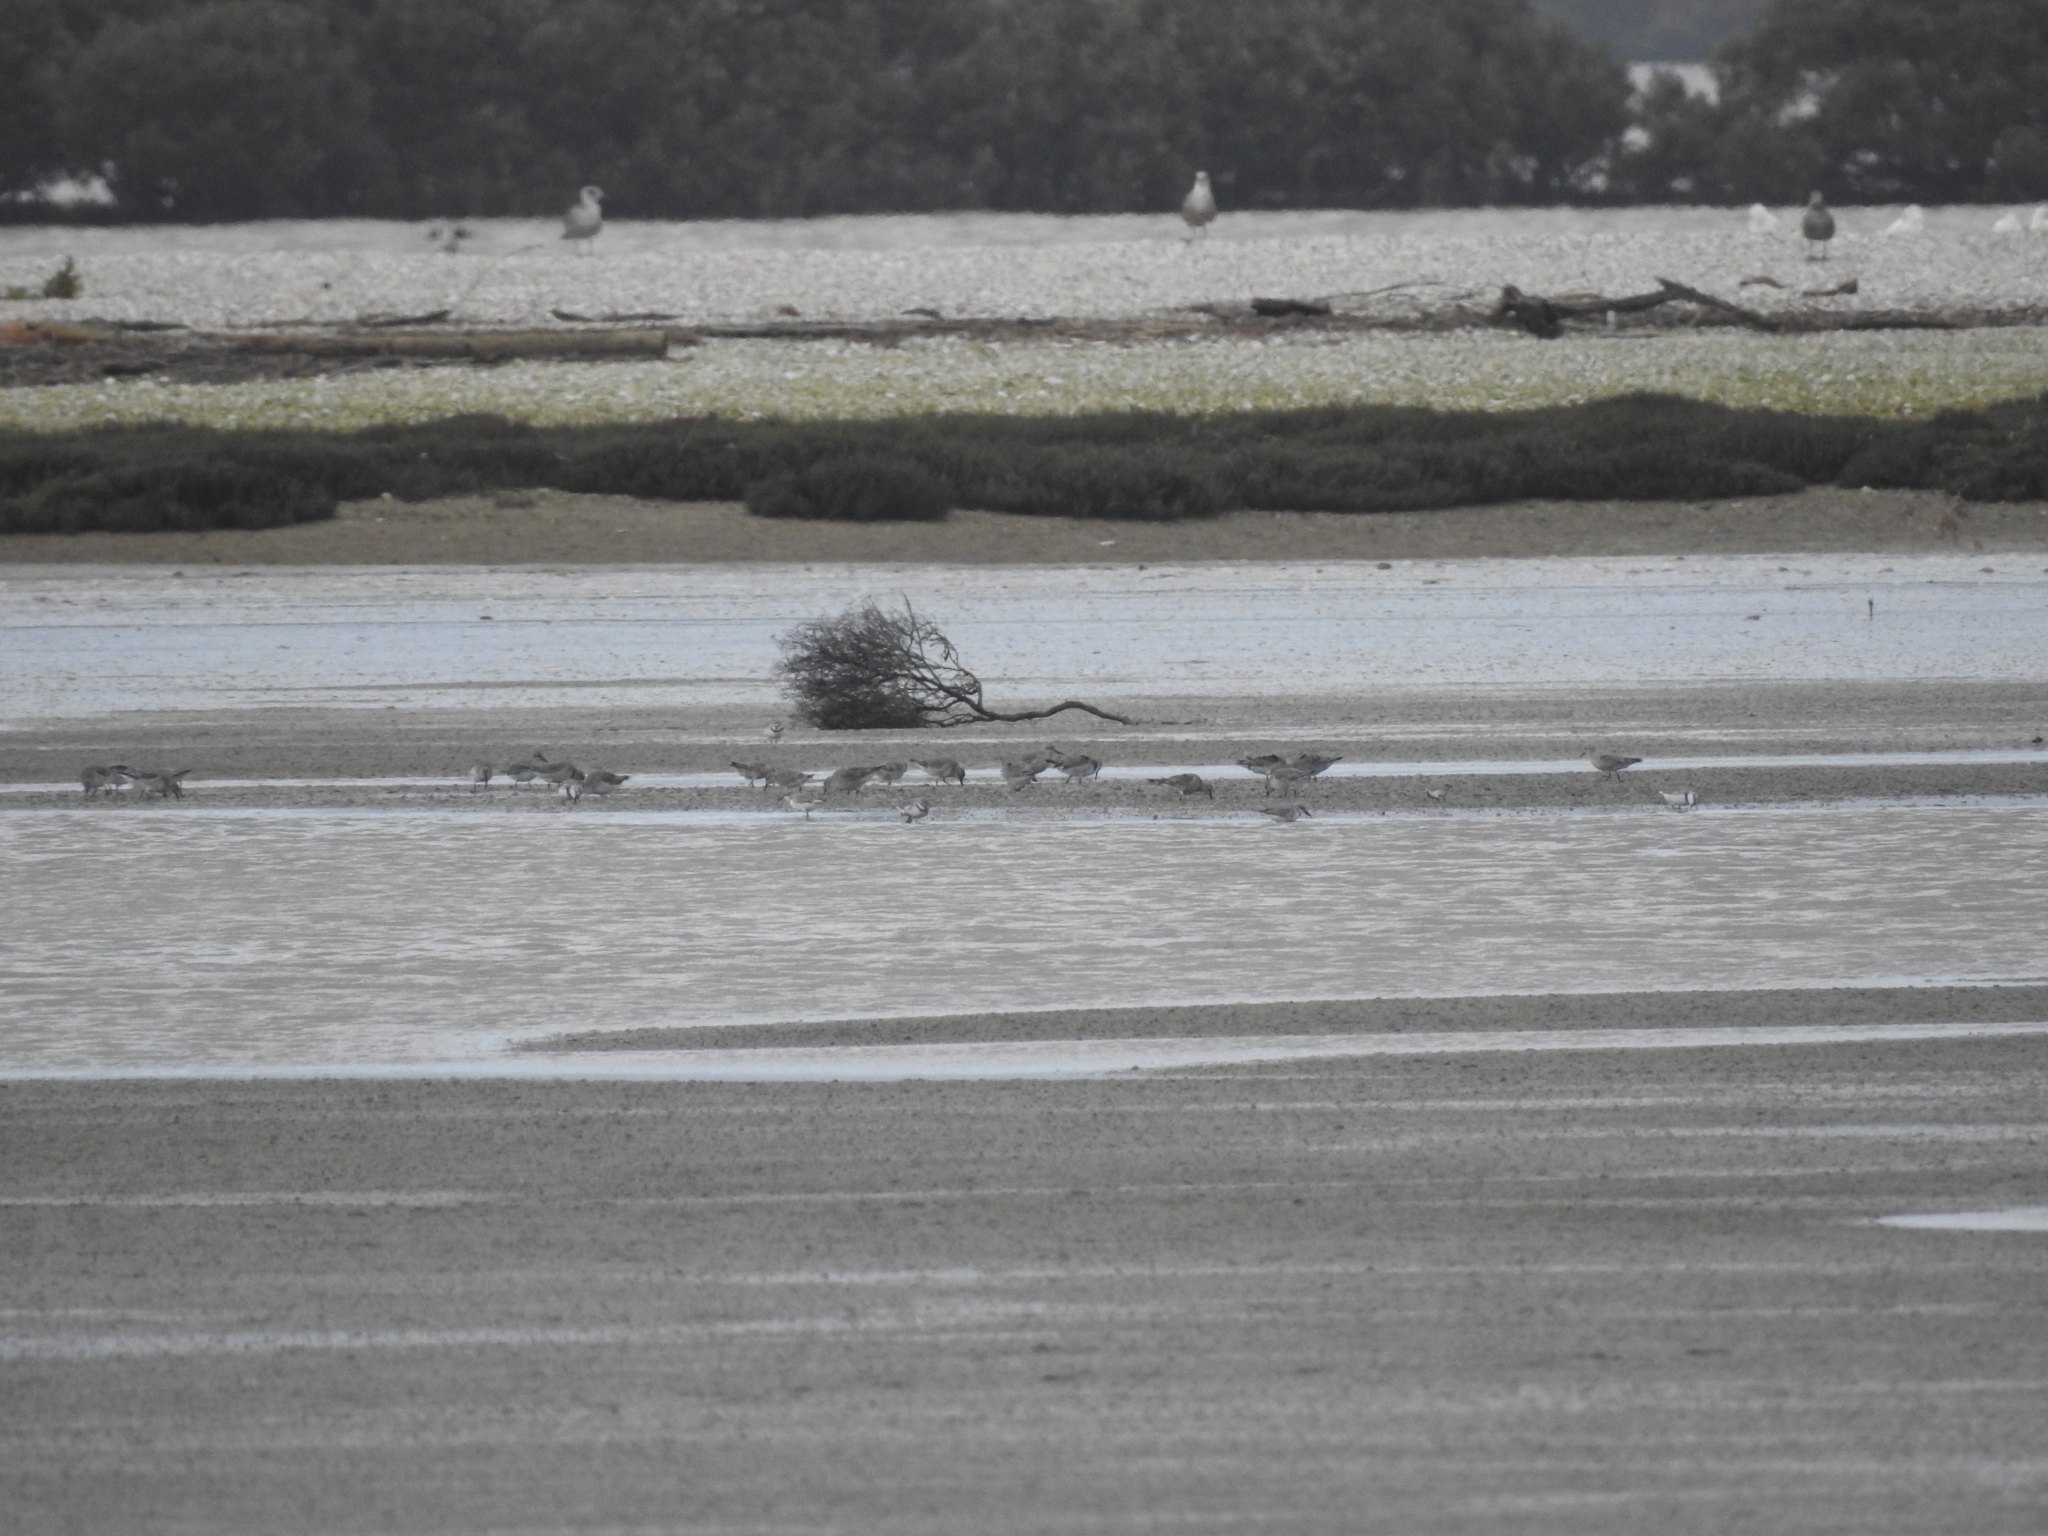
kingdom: Animalia
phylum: Chordata
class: Aves
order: Charadriiformes
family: Scolopacidae
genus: Calidris
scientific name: Calidris canutus
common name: Red knot
